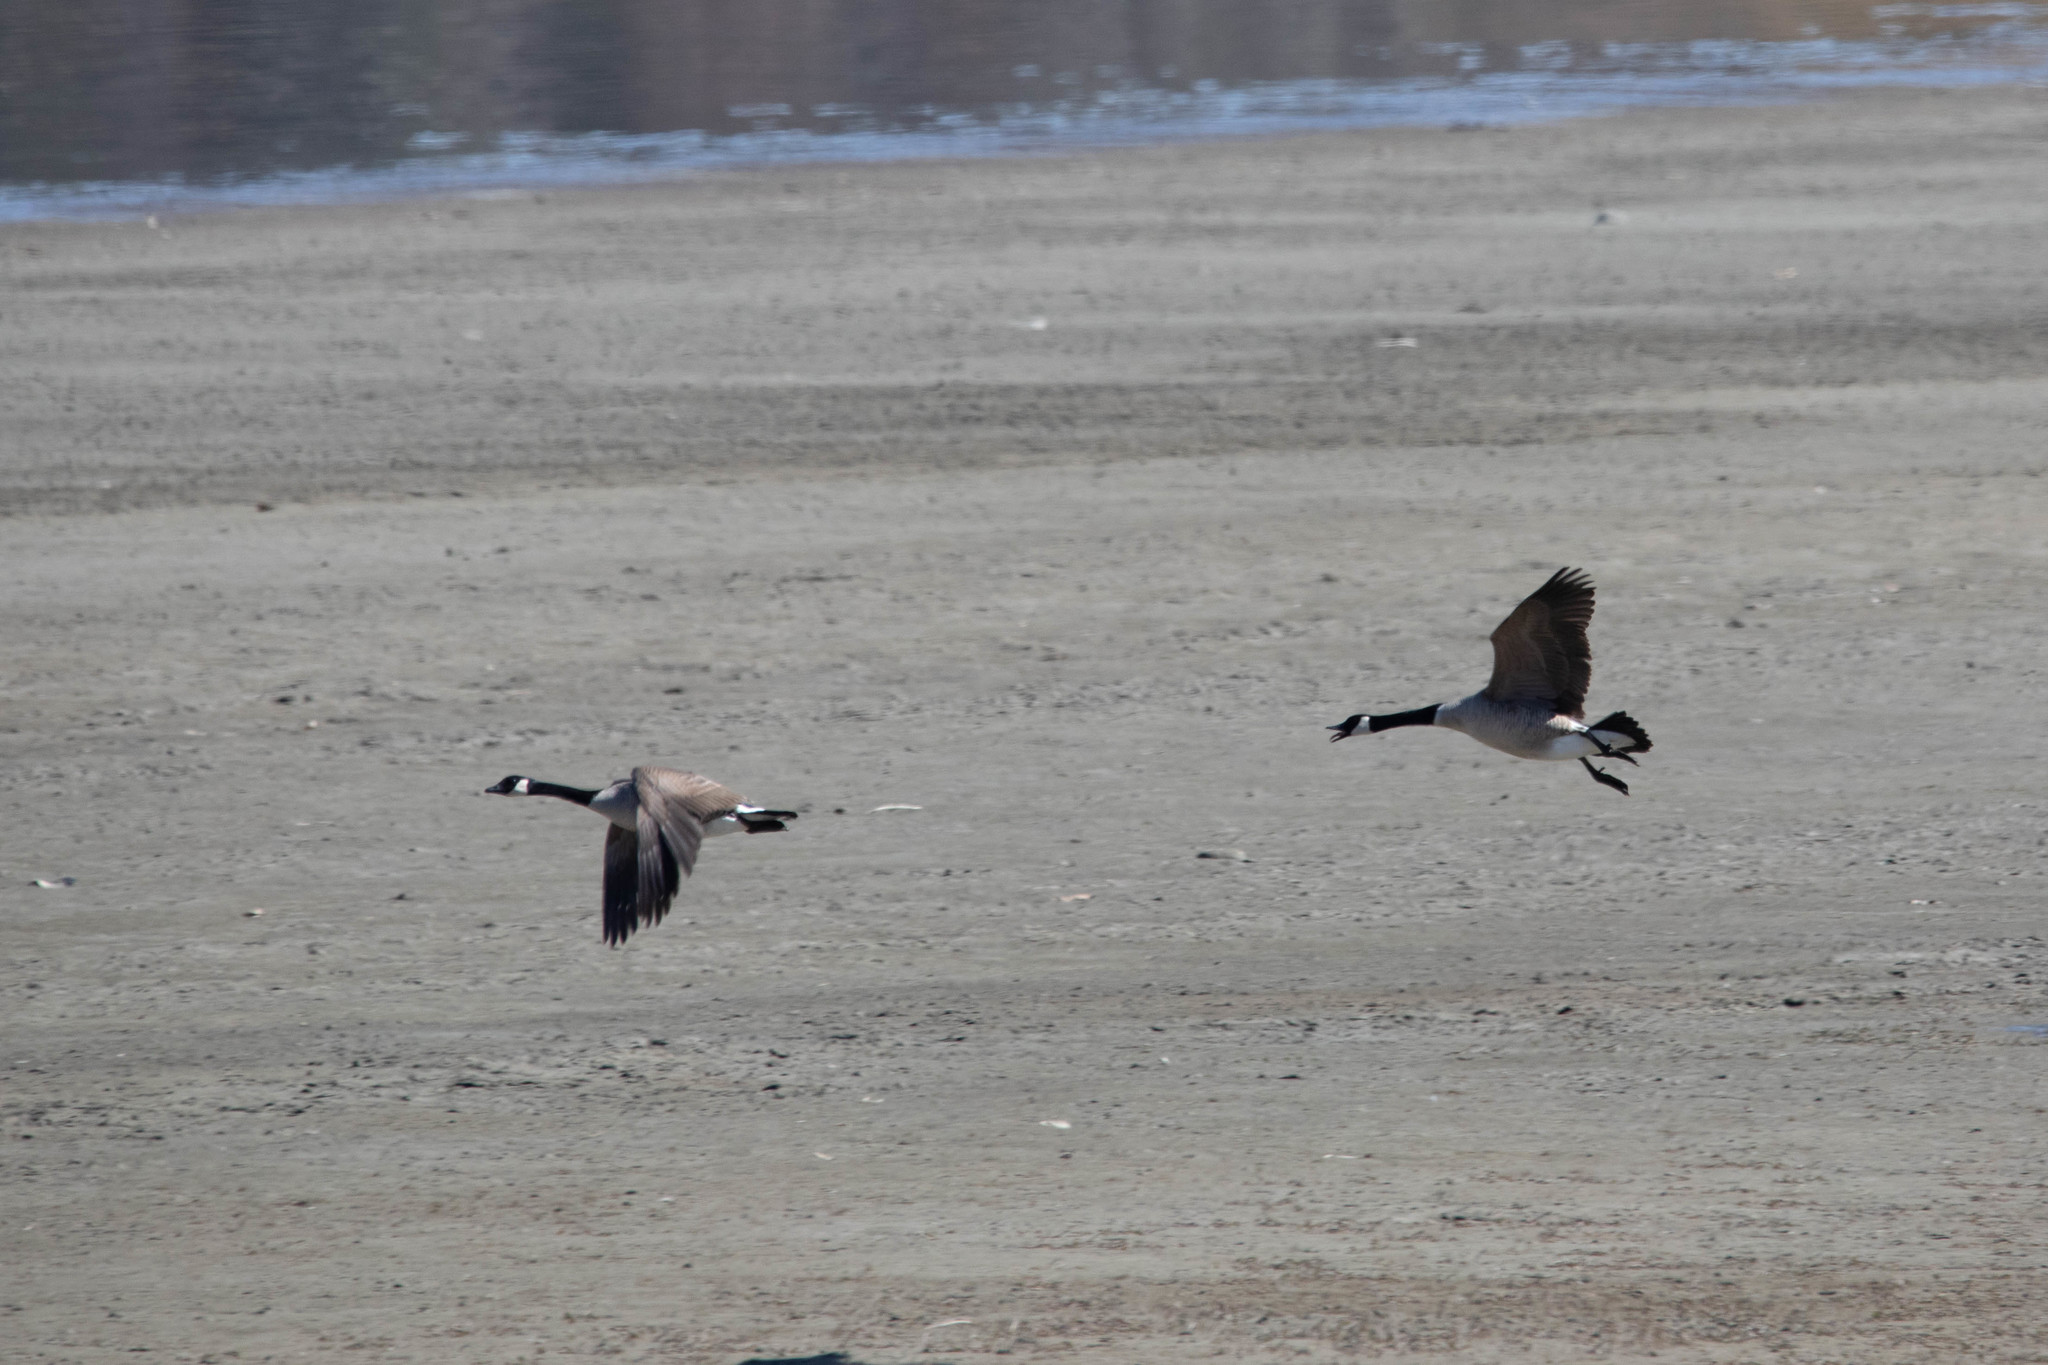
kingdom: Animalia
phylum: Chordata
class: Aves
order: Anseriformes
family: Anatidae
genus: Branta
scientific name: Branta canadensis
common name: Canada goose
